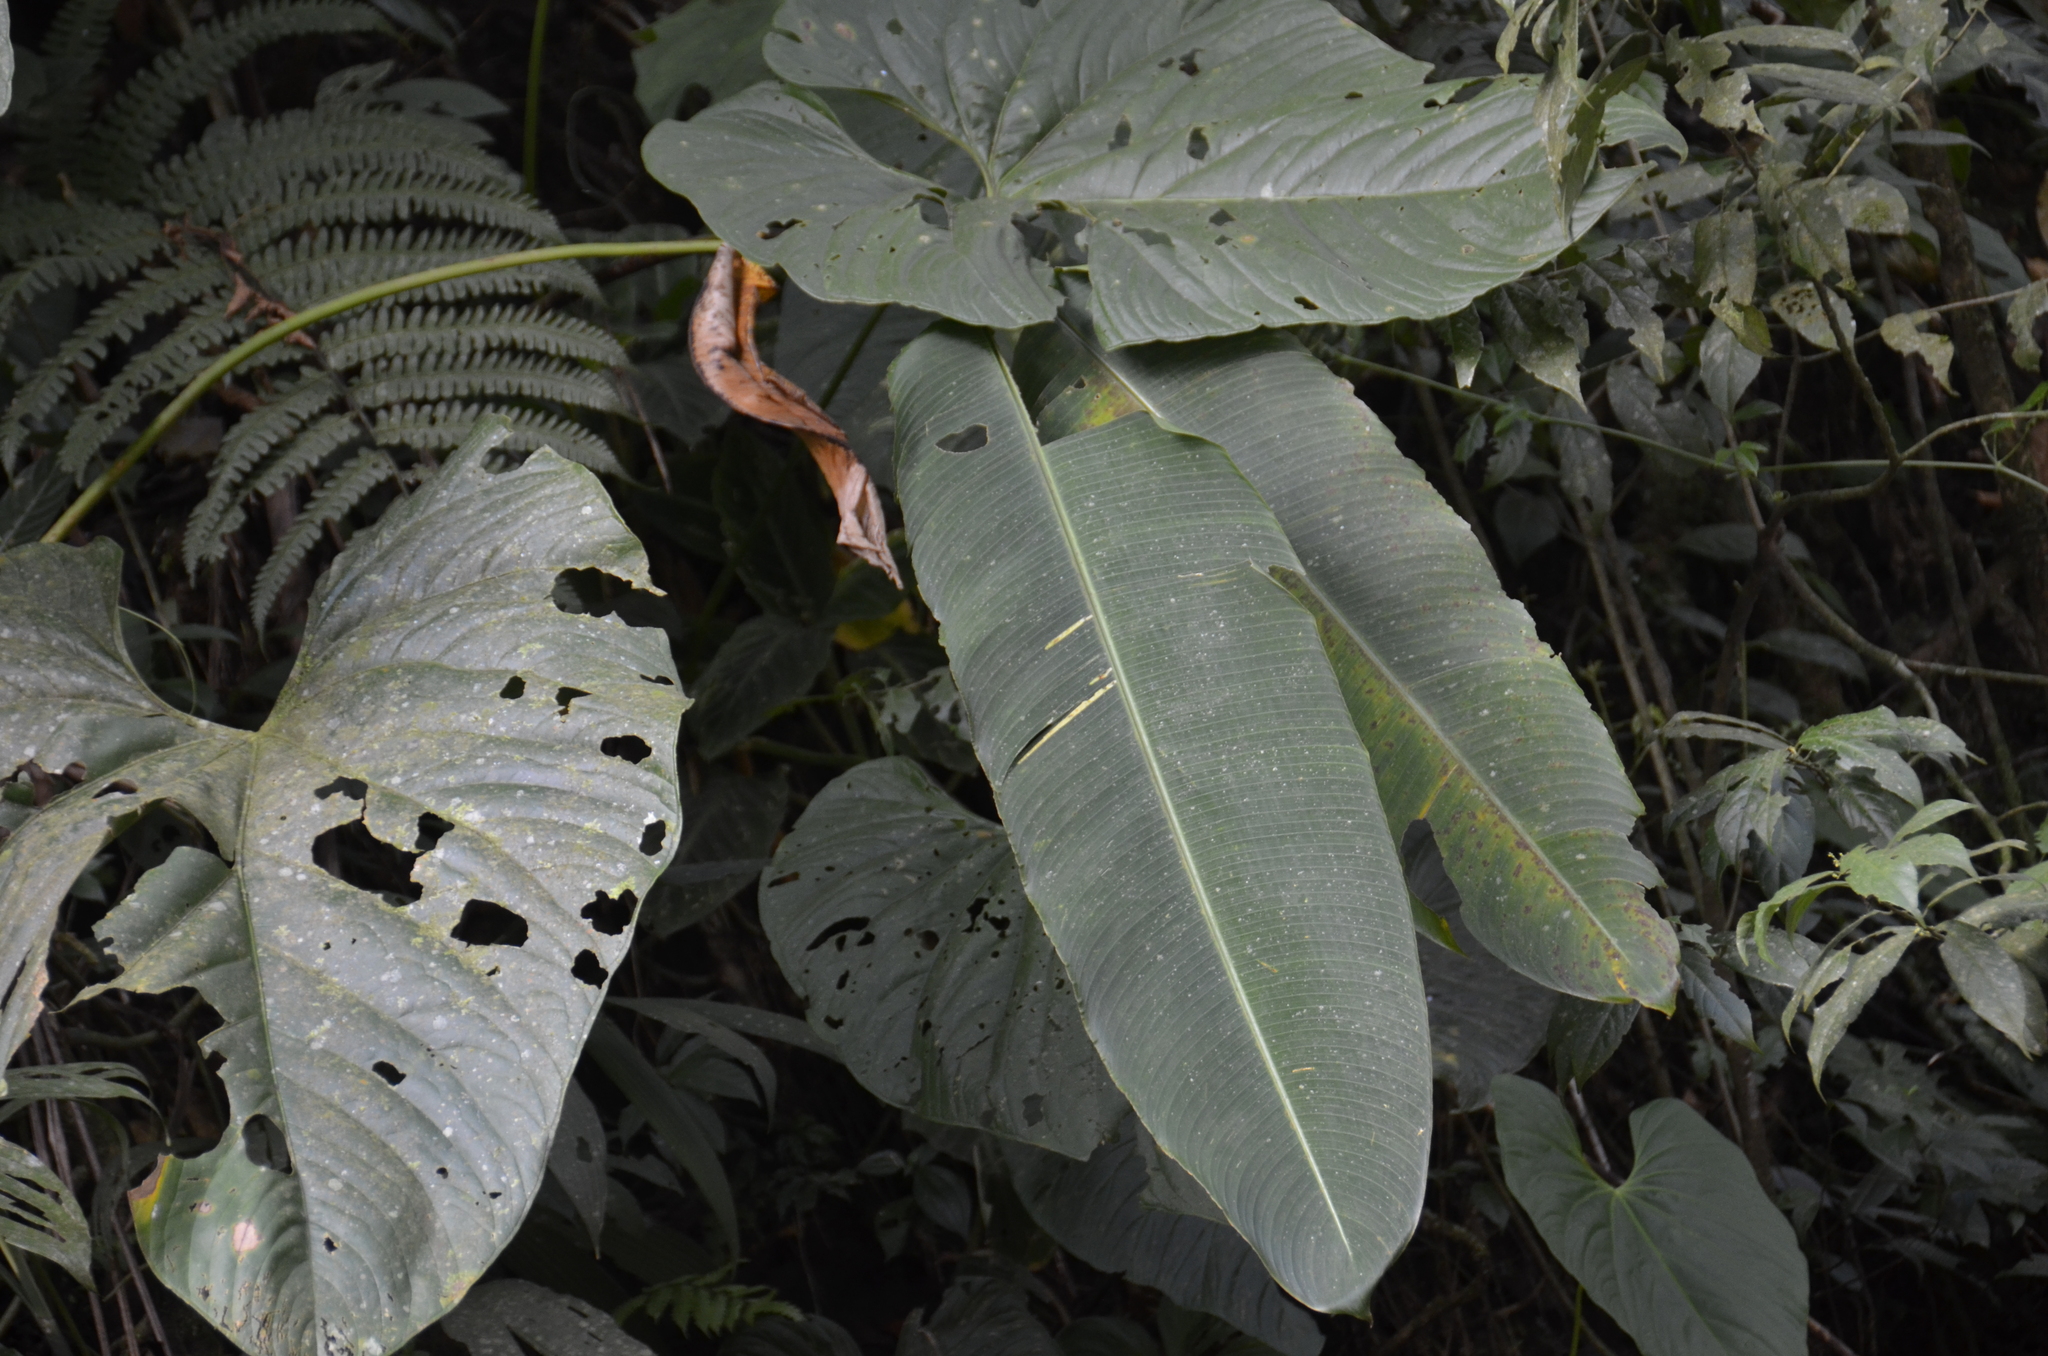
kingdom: Plantae
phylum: Tracheophyta
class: Liliopsida
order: Zingiberales
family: Heliconiaceae
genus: Heliconia
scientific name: Heliconia
